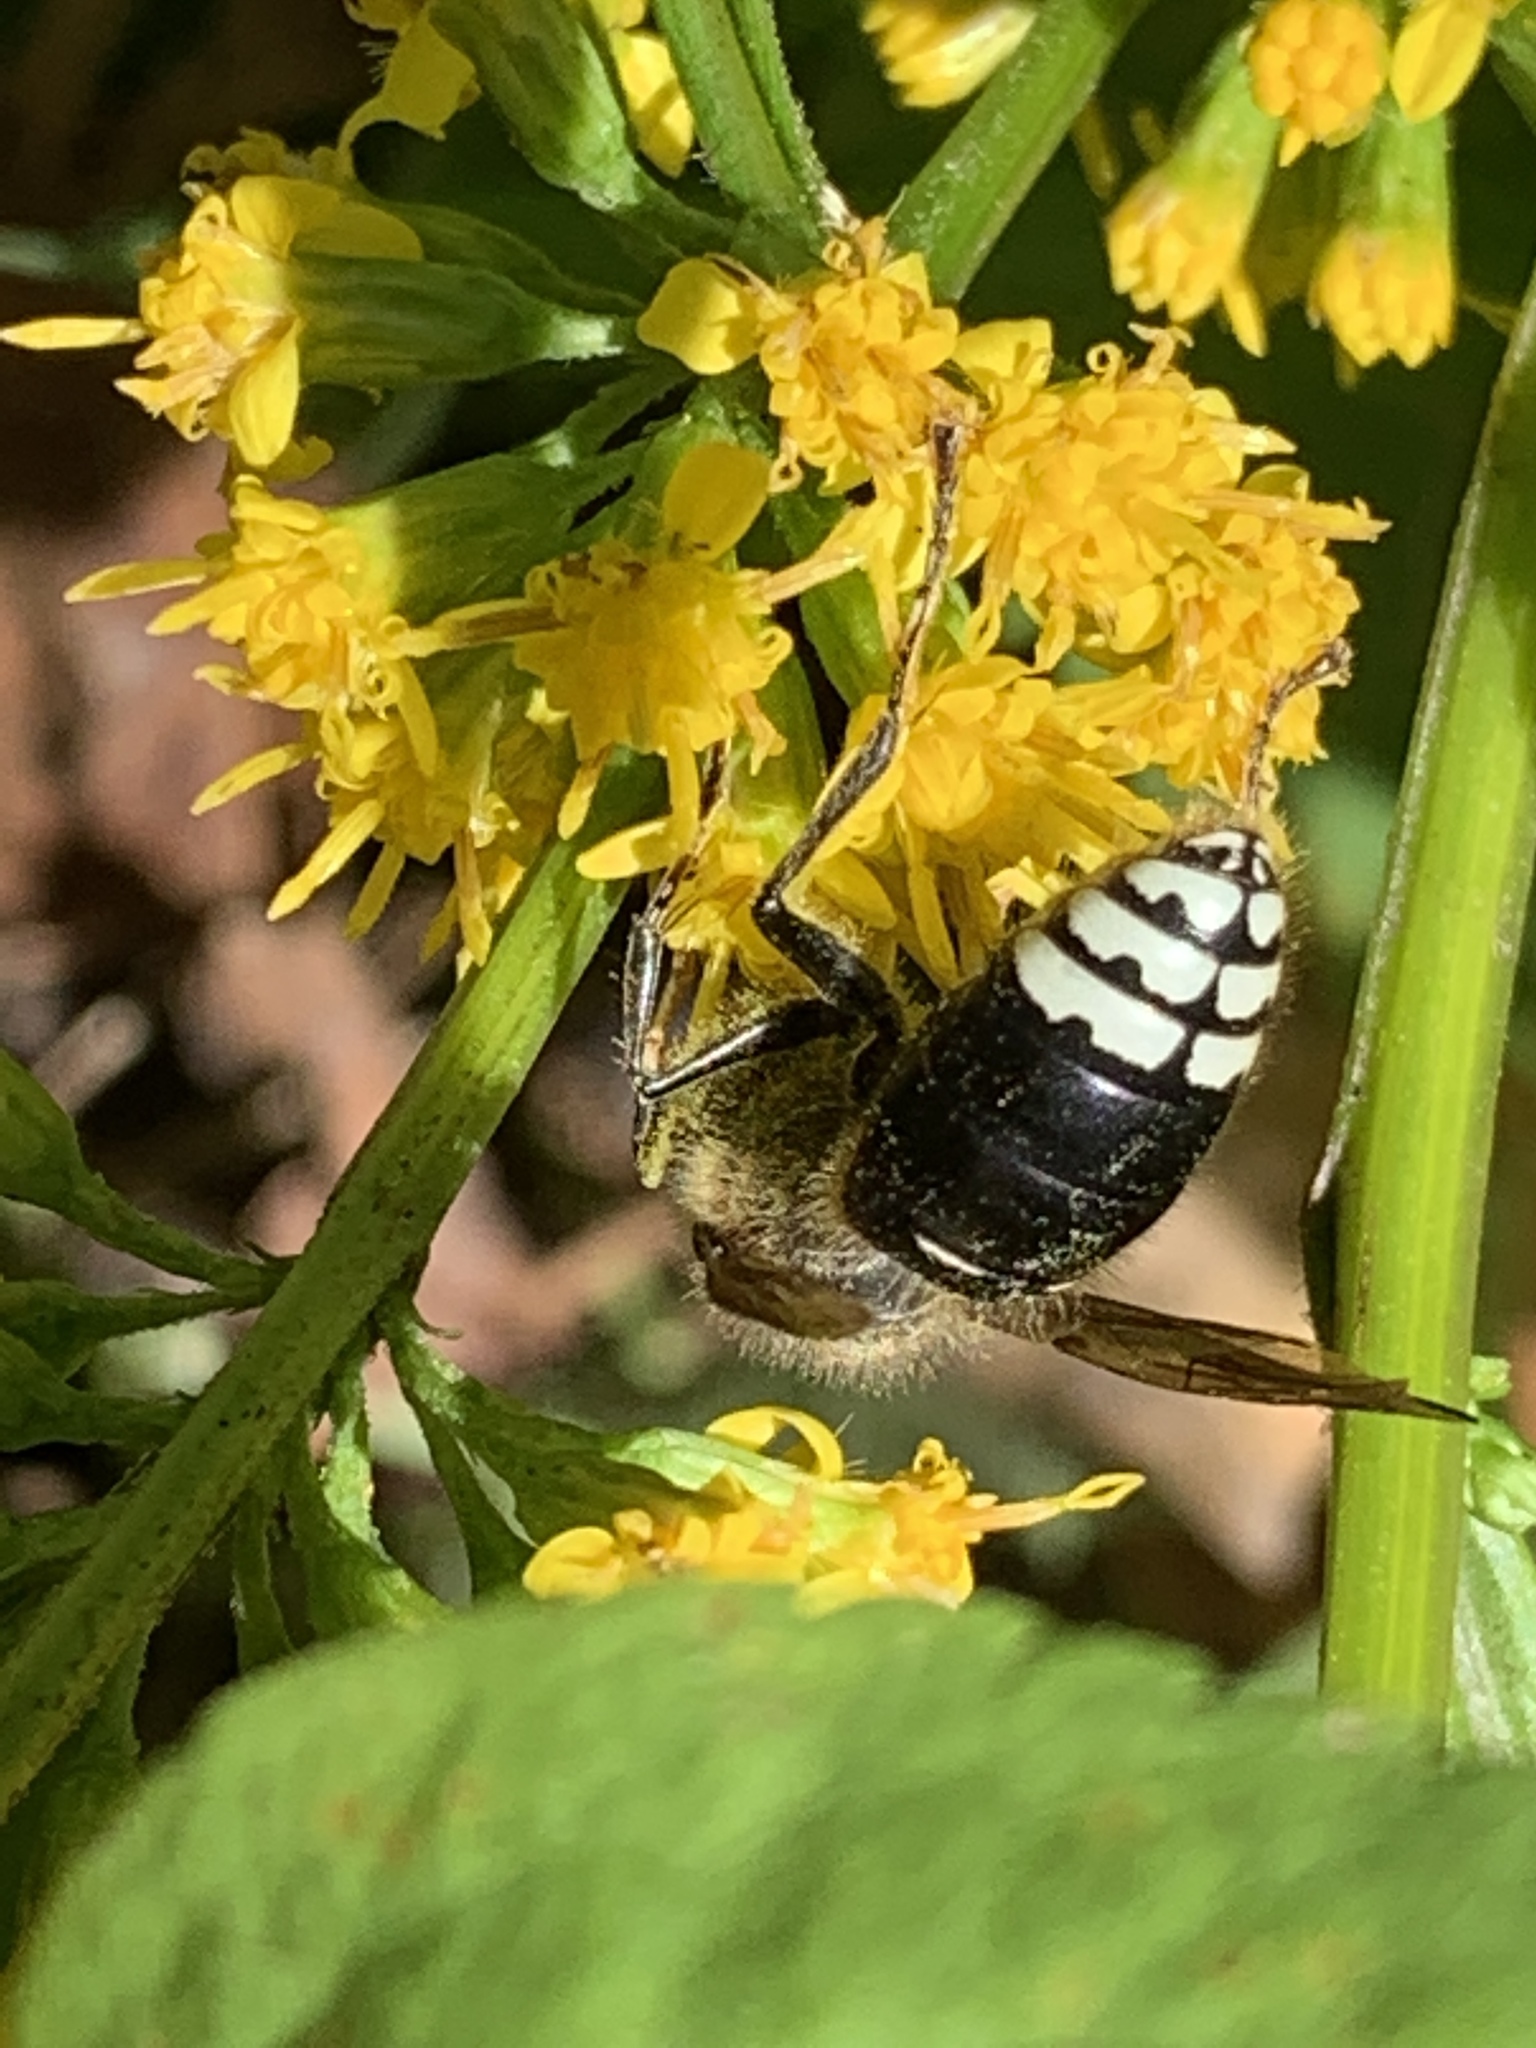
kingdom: Animalia
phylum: Arthropoda
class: Insecta
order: Hymenoptera
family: Vespidae
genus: Dolichovespula
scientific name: Dolichovespula maculata
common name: Bald-faced hornet
